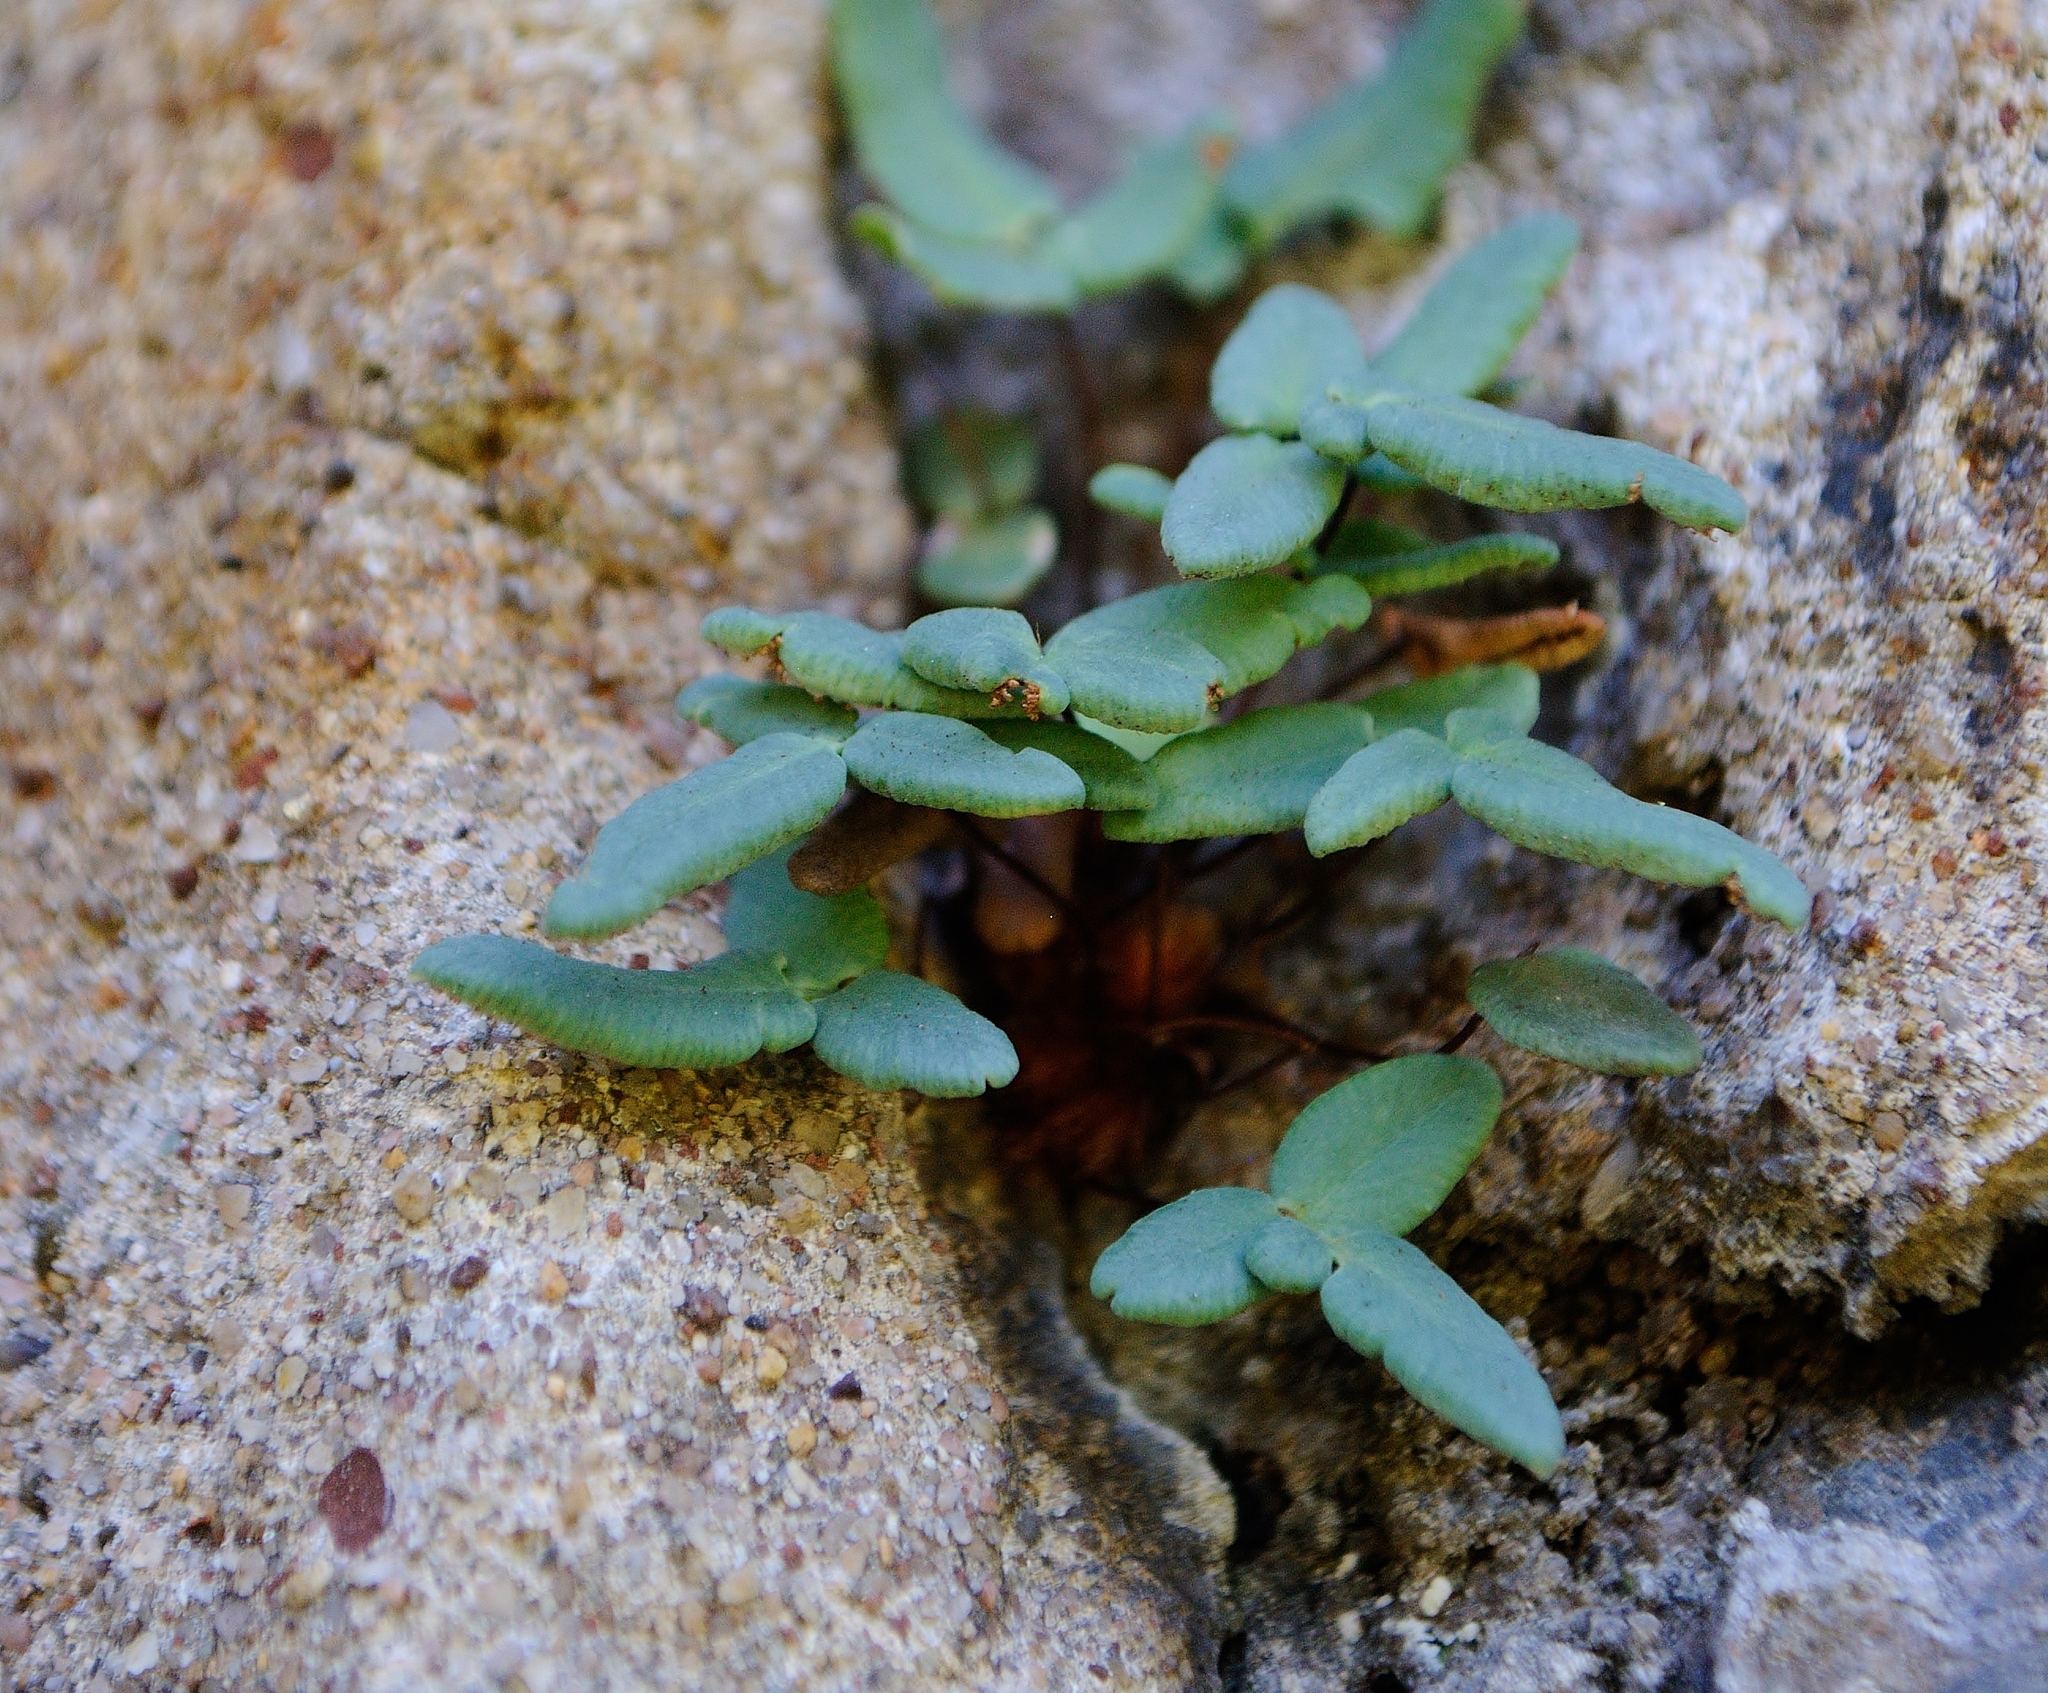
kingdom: Plantae
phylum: Tracheophyta
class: Polypodiopsida
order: Polypodiales
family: Pteridaceae
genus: Pellaea
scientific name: Pellaea glabella
